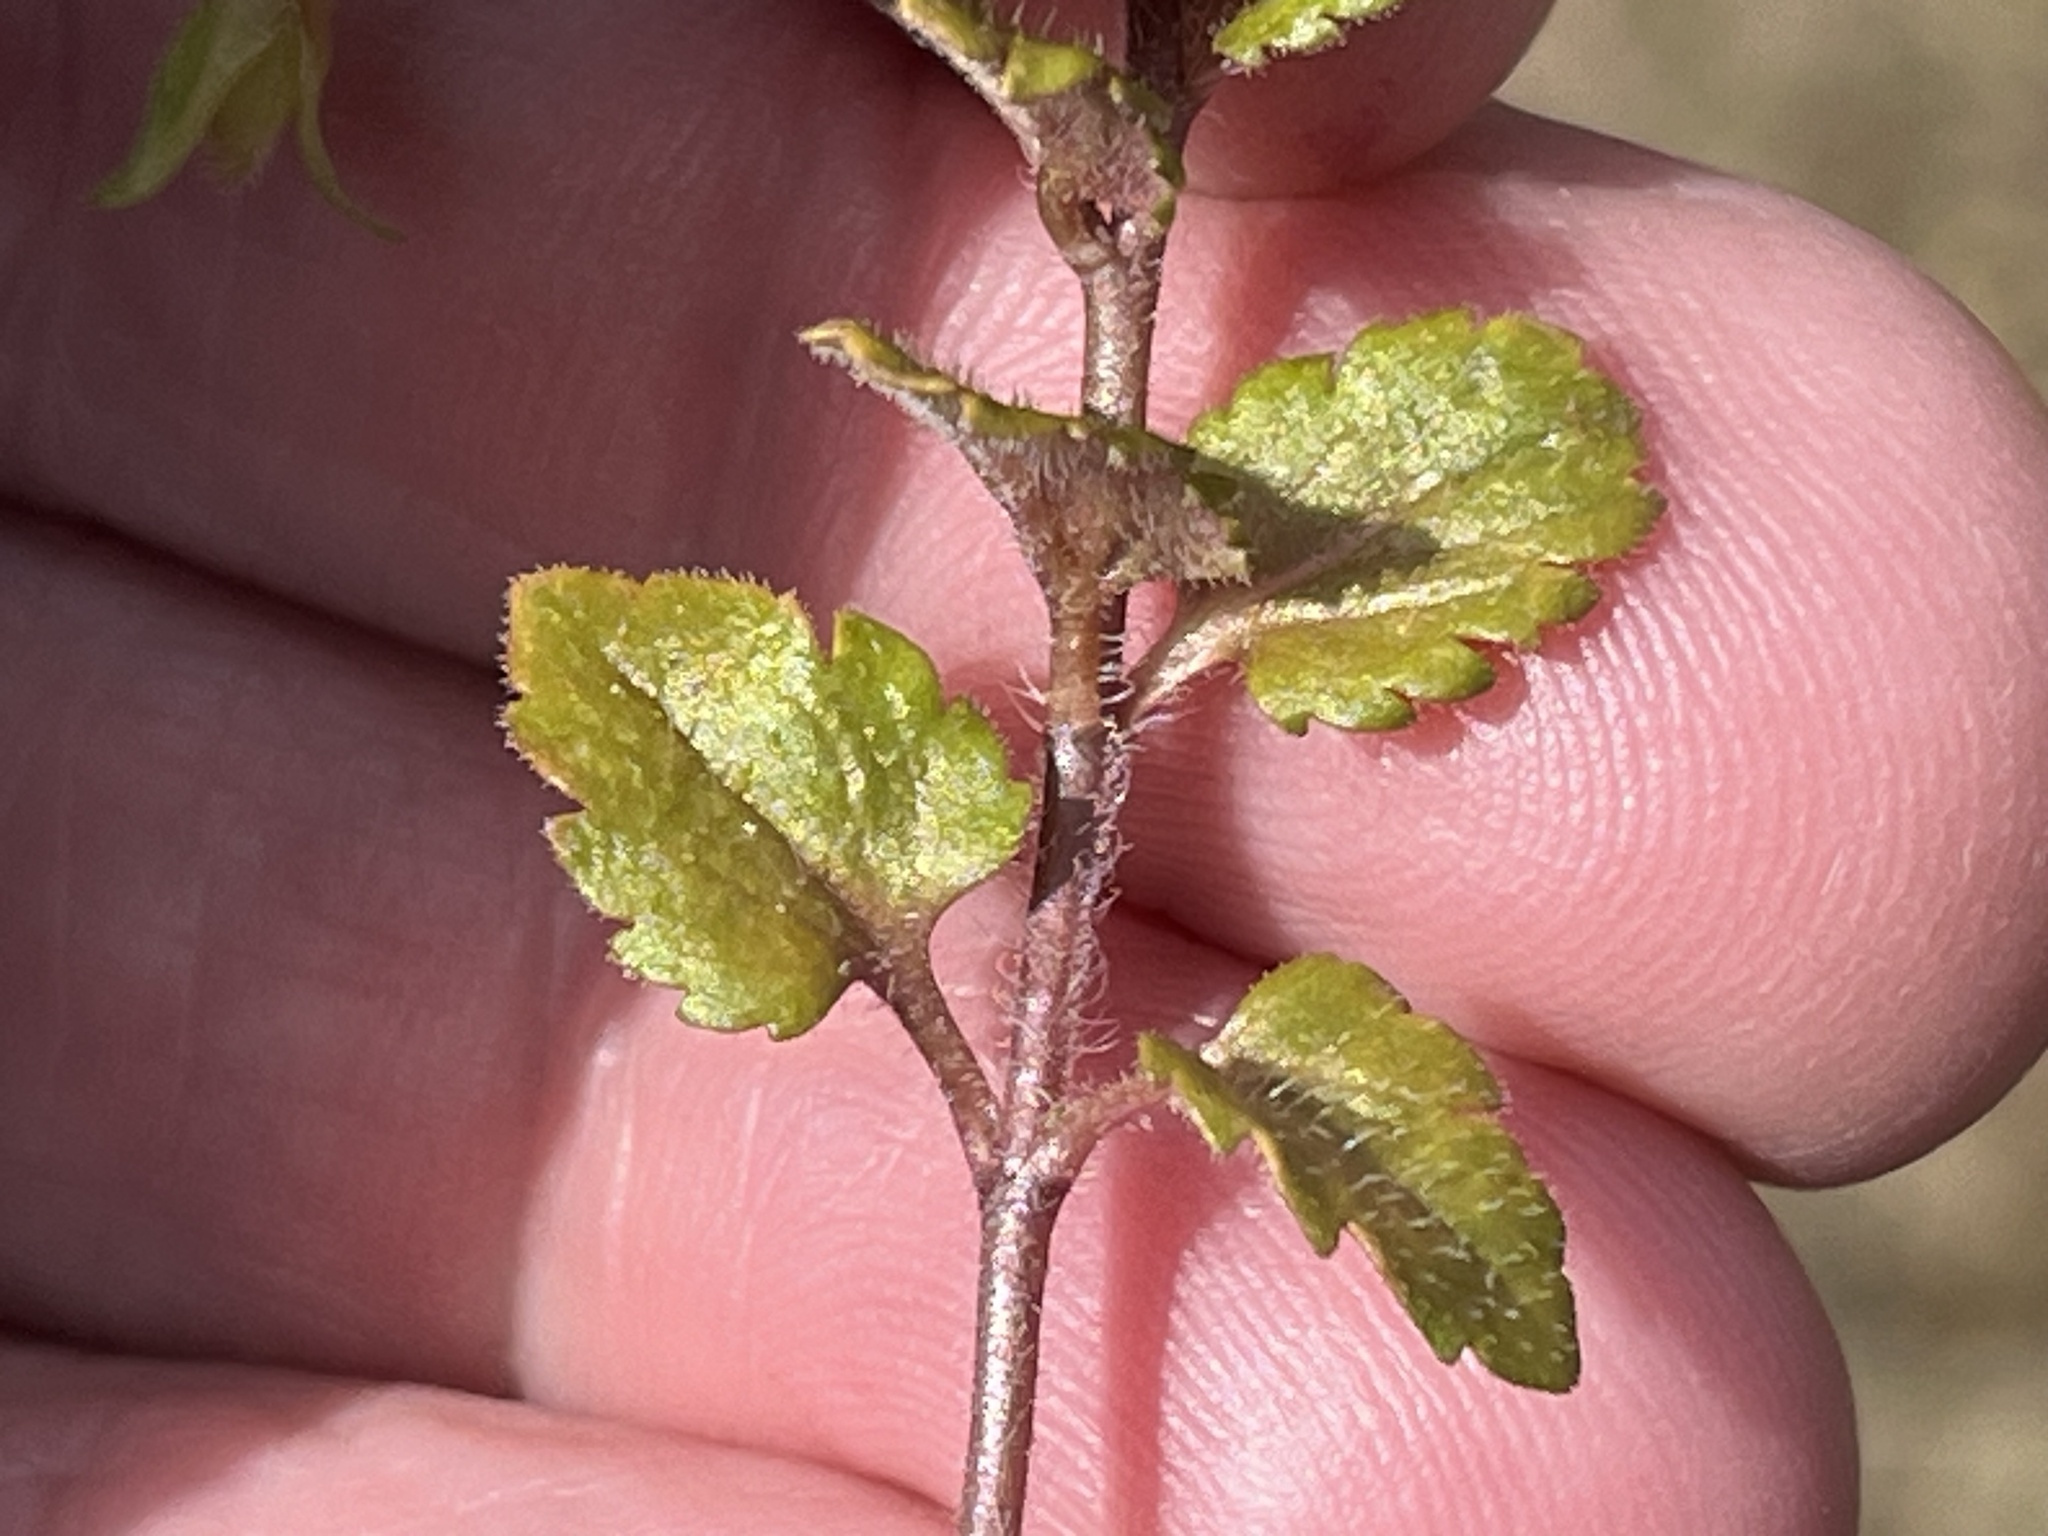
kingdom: Plantae
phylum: Tracheophyta
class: Magnoliopsida
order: Lamiales
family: Plantaginaceae
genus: Veronica
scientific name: Veronica persica
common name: Common field-speedwell
